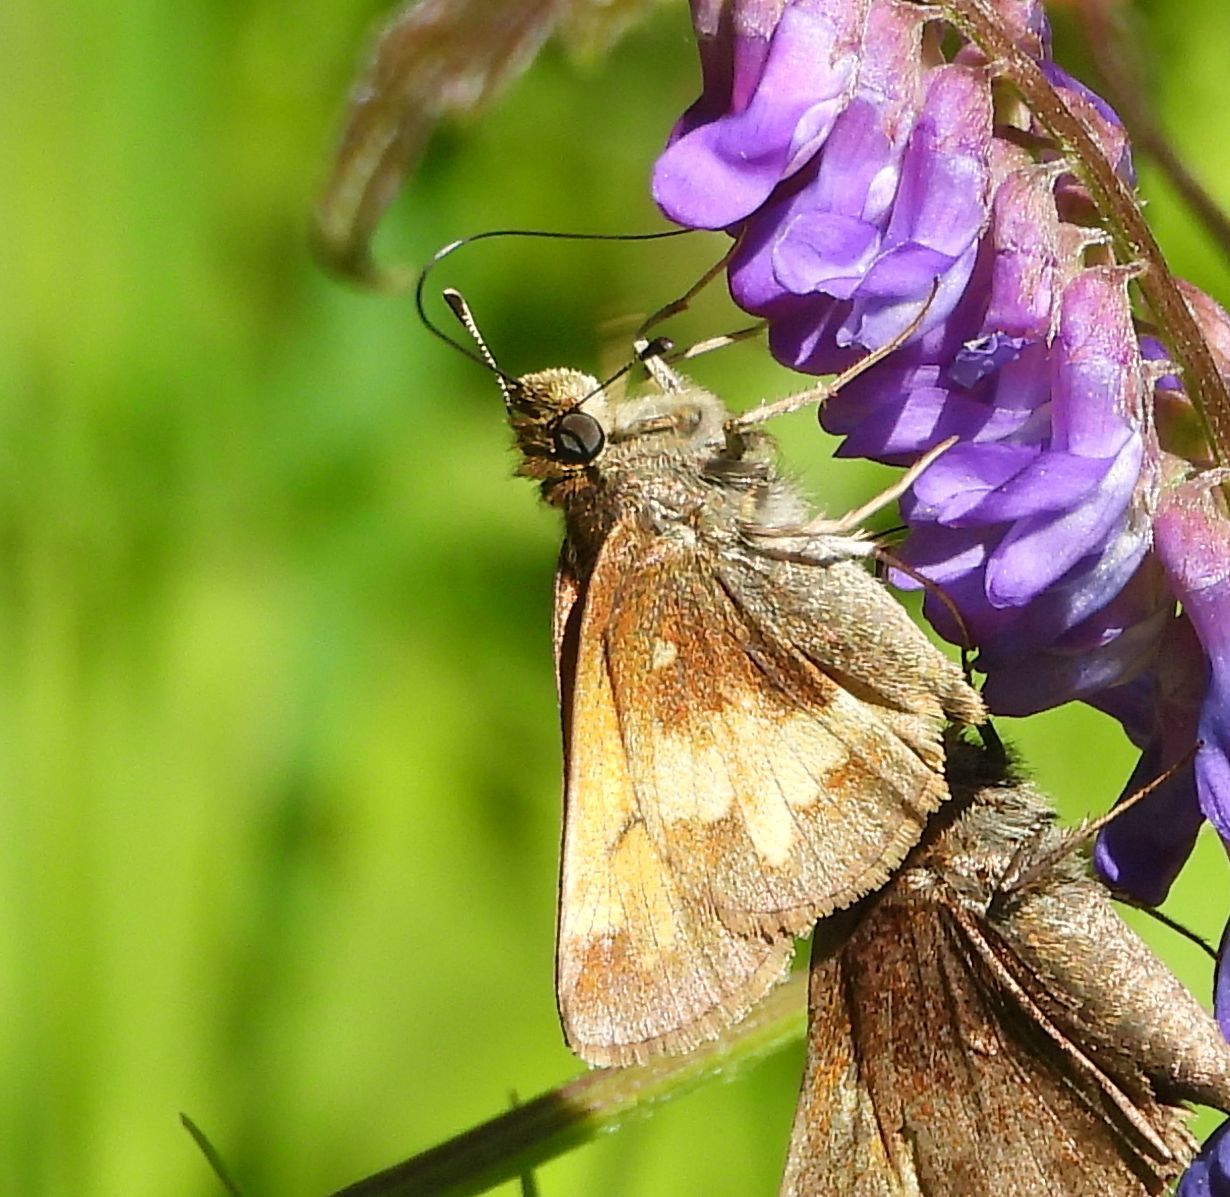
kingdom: Animalia
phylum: Arthropoda
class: Insecta
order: Lepidoptera
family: Hesperiidae
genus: Lon
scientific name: Lon hobomok
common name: Hobomok skipper
